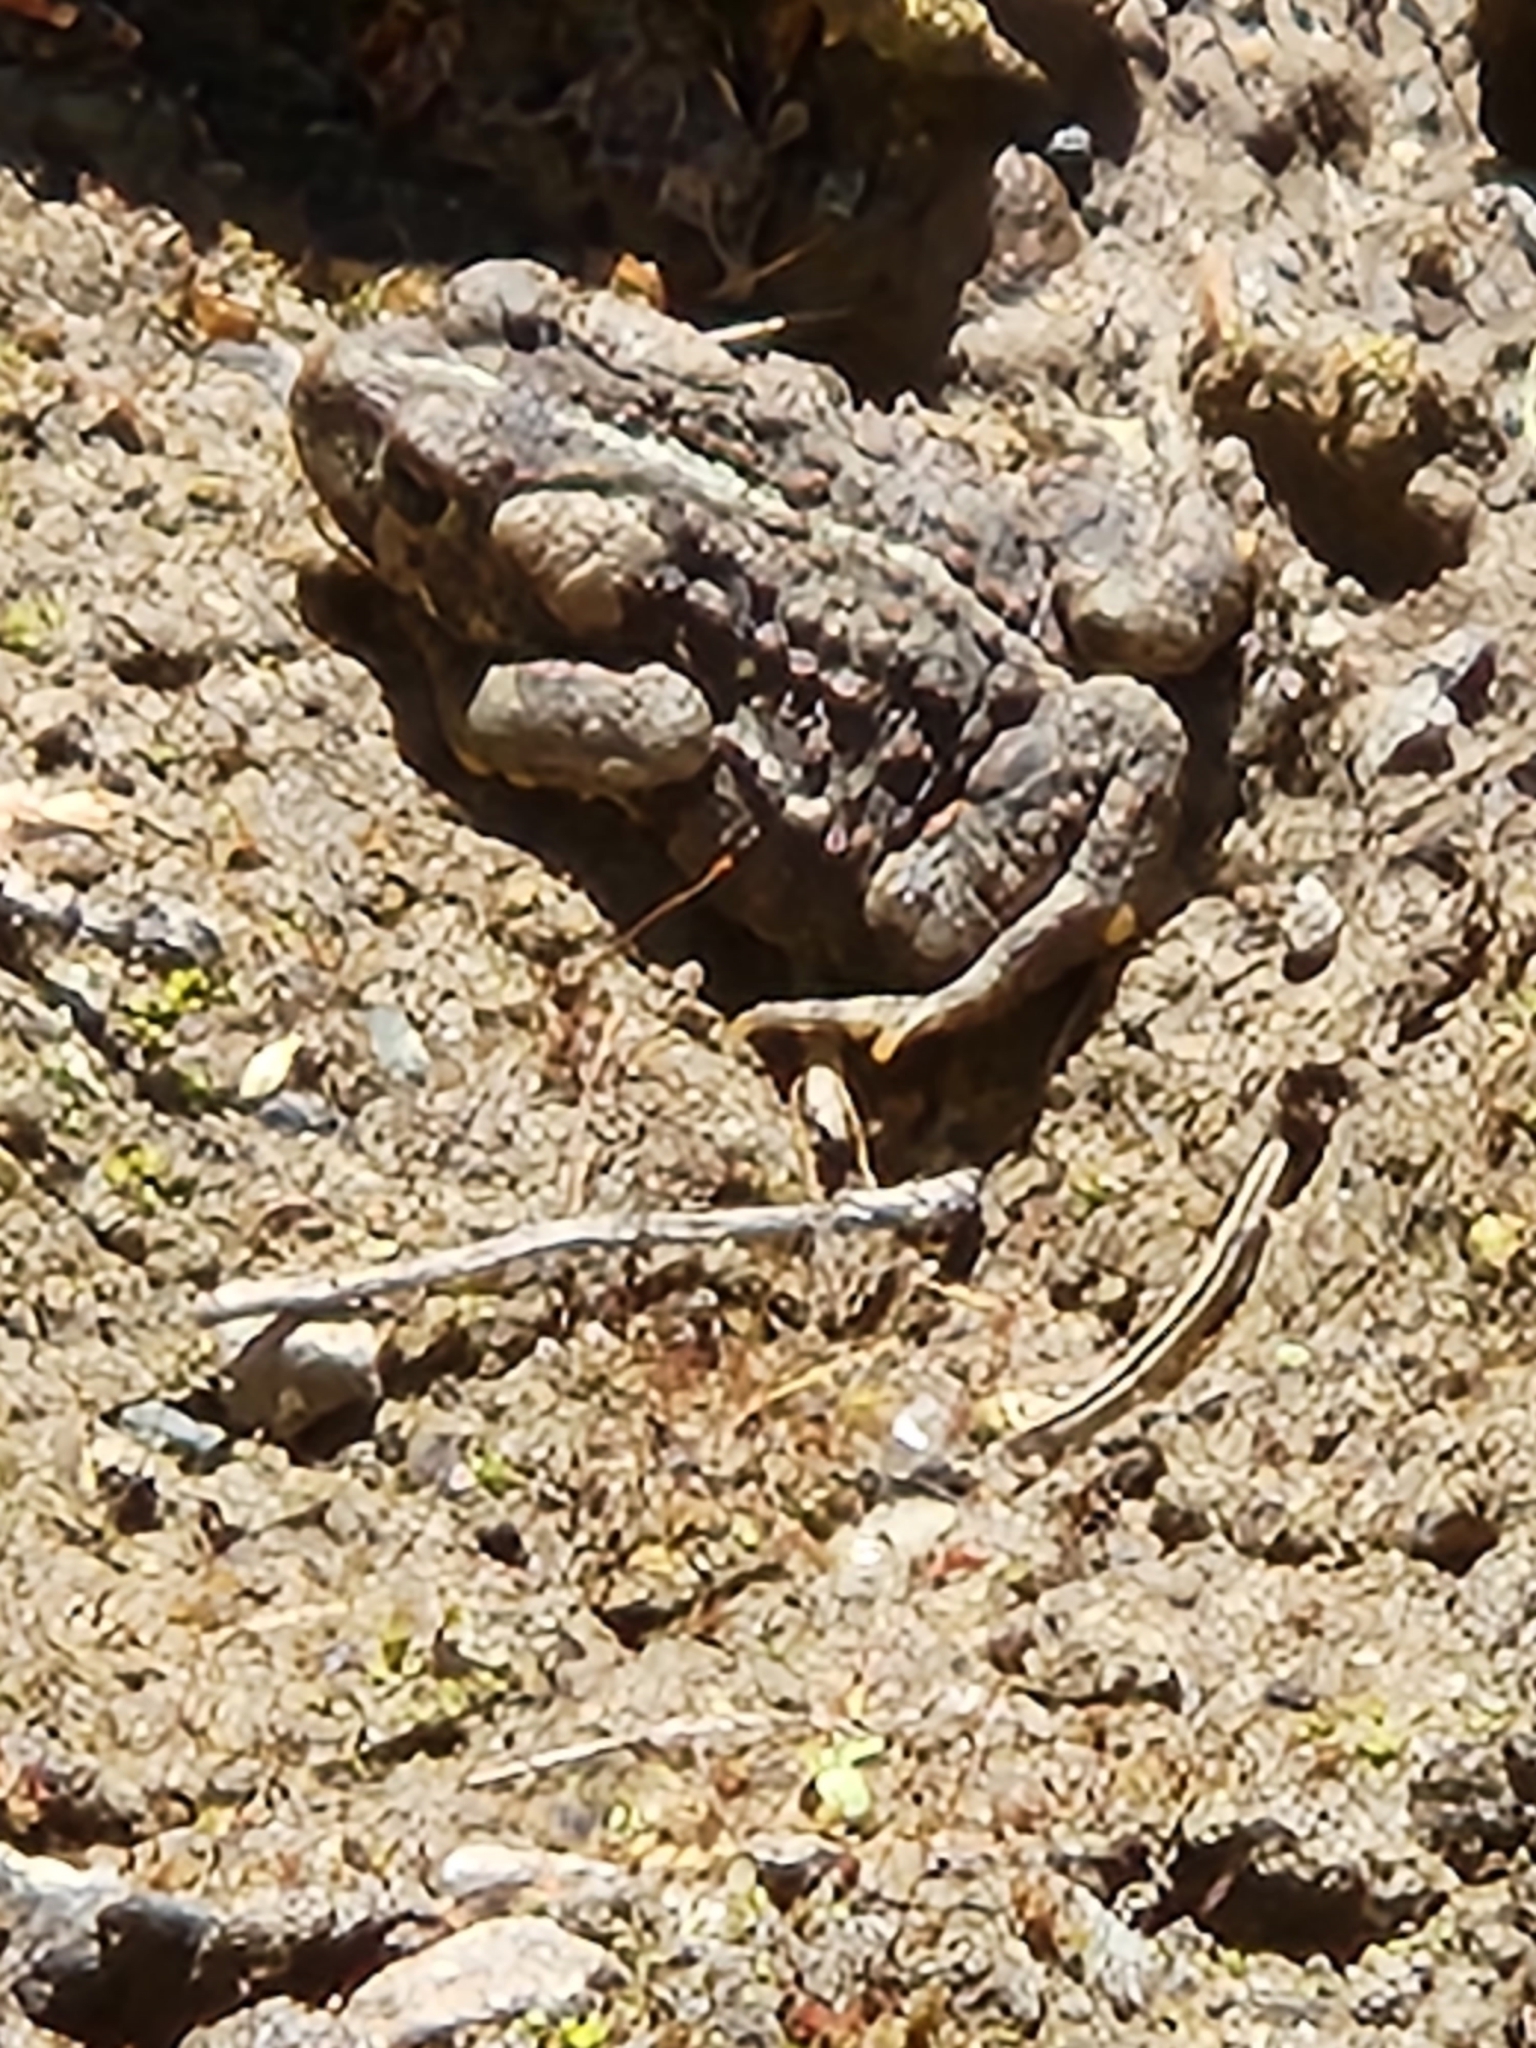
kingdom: Animalia
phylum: Chordata
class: Amphibia
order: Anura
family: Bufonidae
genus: Anaxyrus
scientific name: Anaxyrus boreas
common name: Western toad
